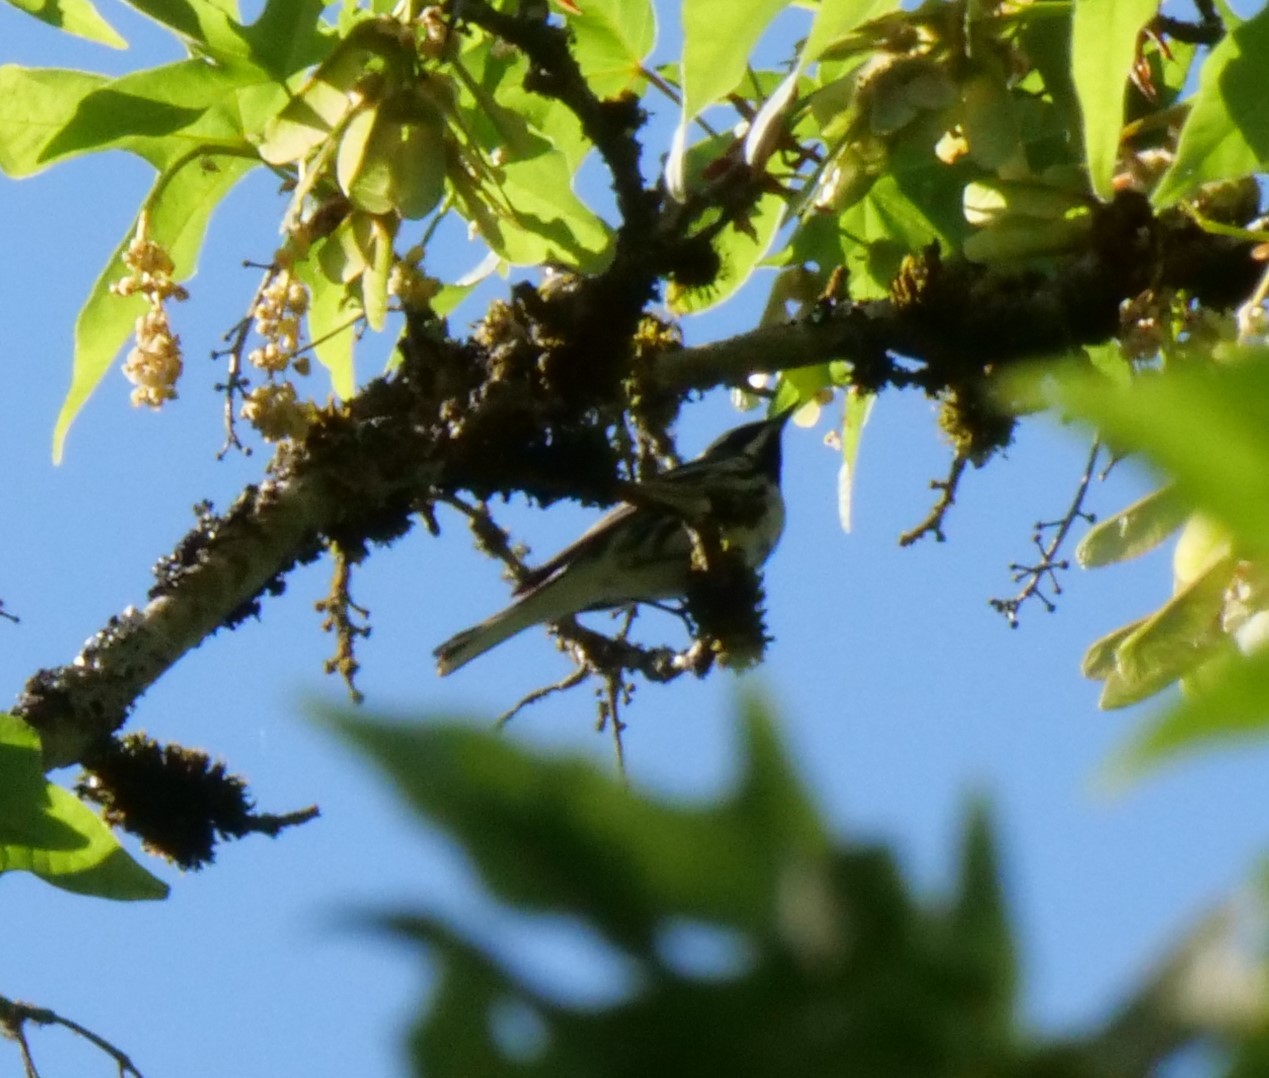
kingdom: Animalia
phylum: Chordata
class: Aves
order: Passeriformes
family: Parulidae
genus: Setophaga
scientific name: Setophaga nigrescens
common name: Black-throated gray warbler
